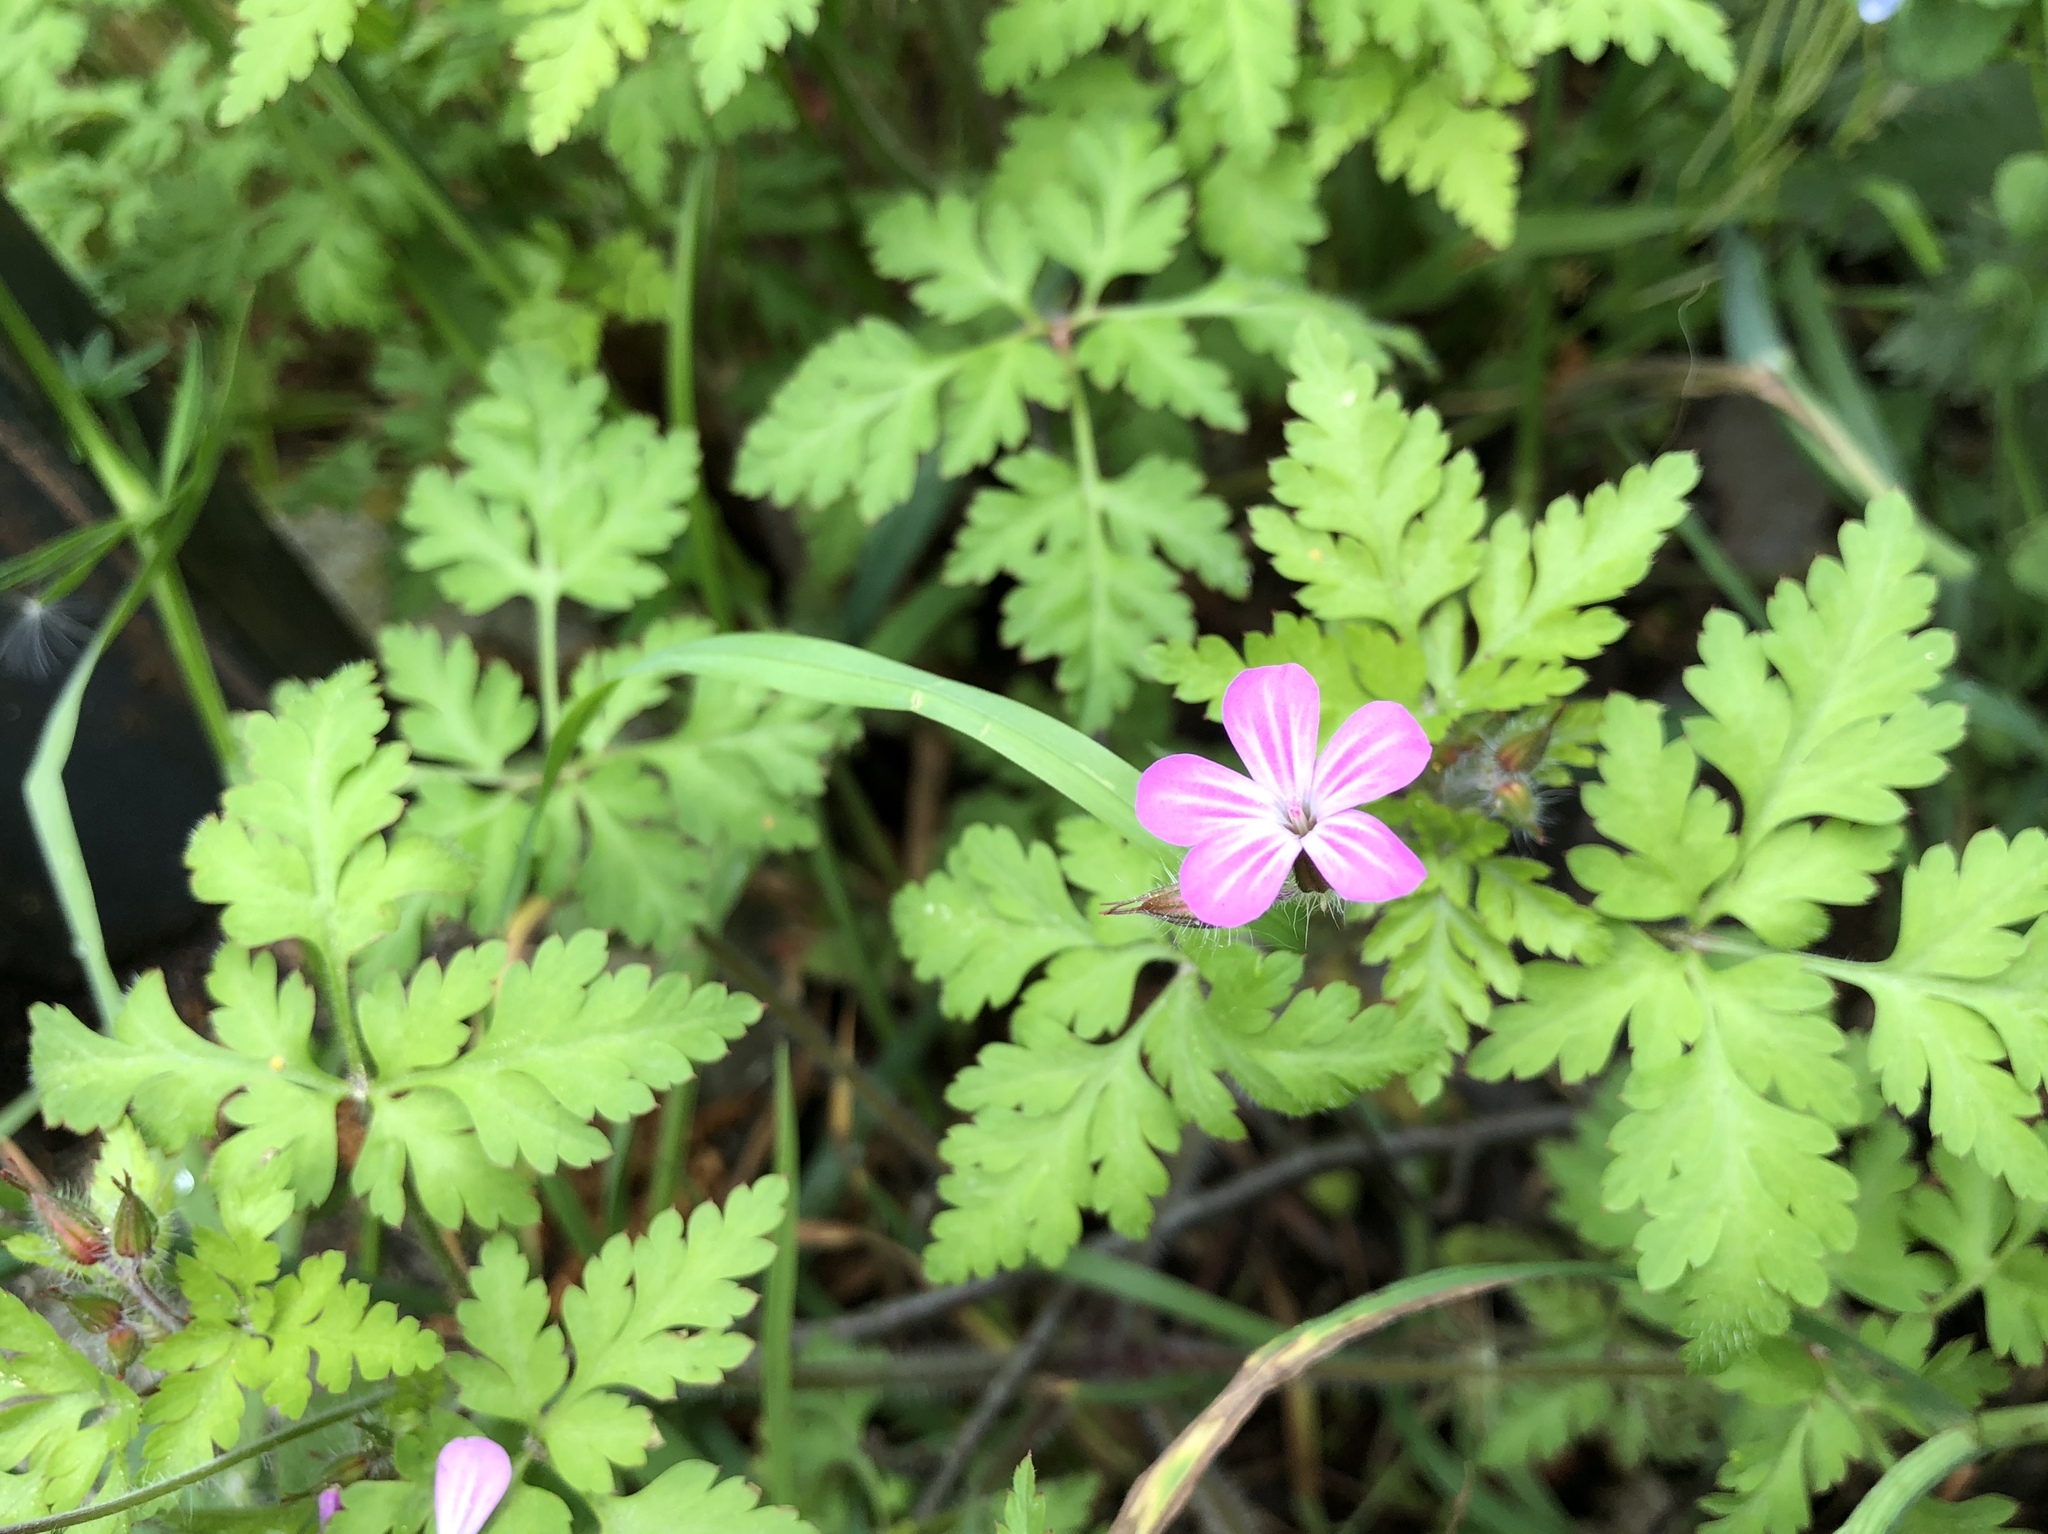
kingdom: Plantae
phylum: Tracheophyta
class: Magnoliopsida
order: Geraniales
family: Geraniaceae
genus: Geranium
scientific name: Geranium robertianum
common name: Herb-robert
